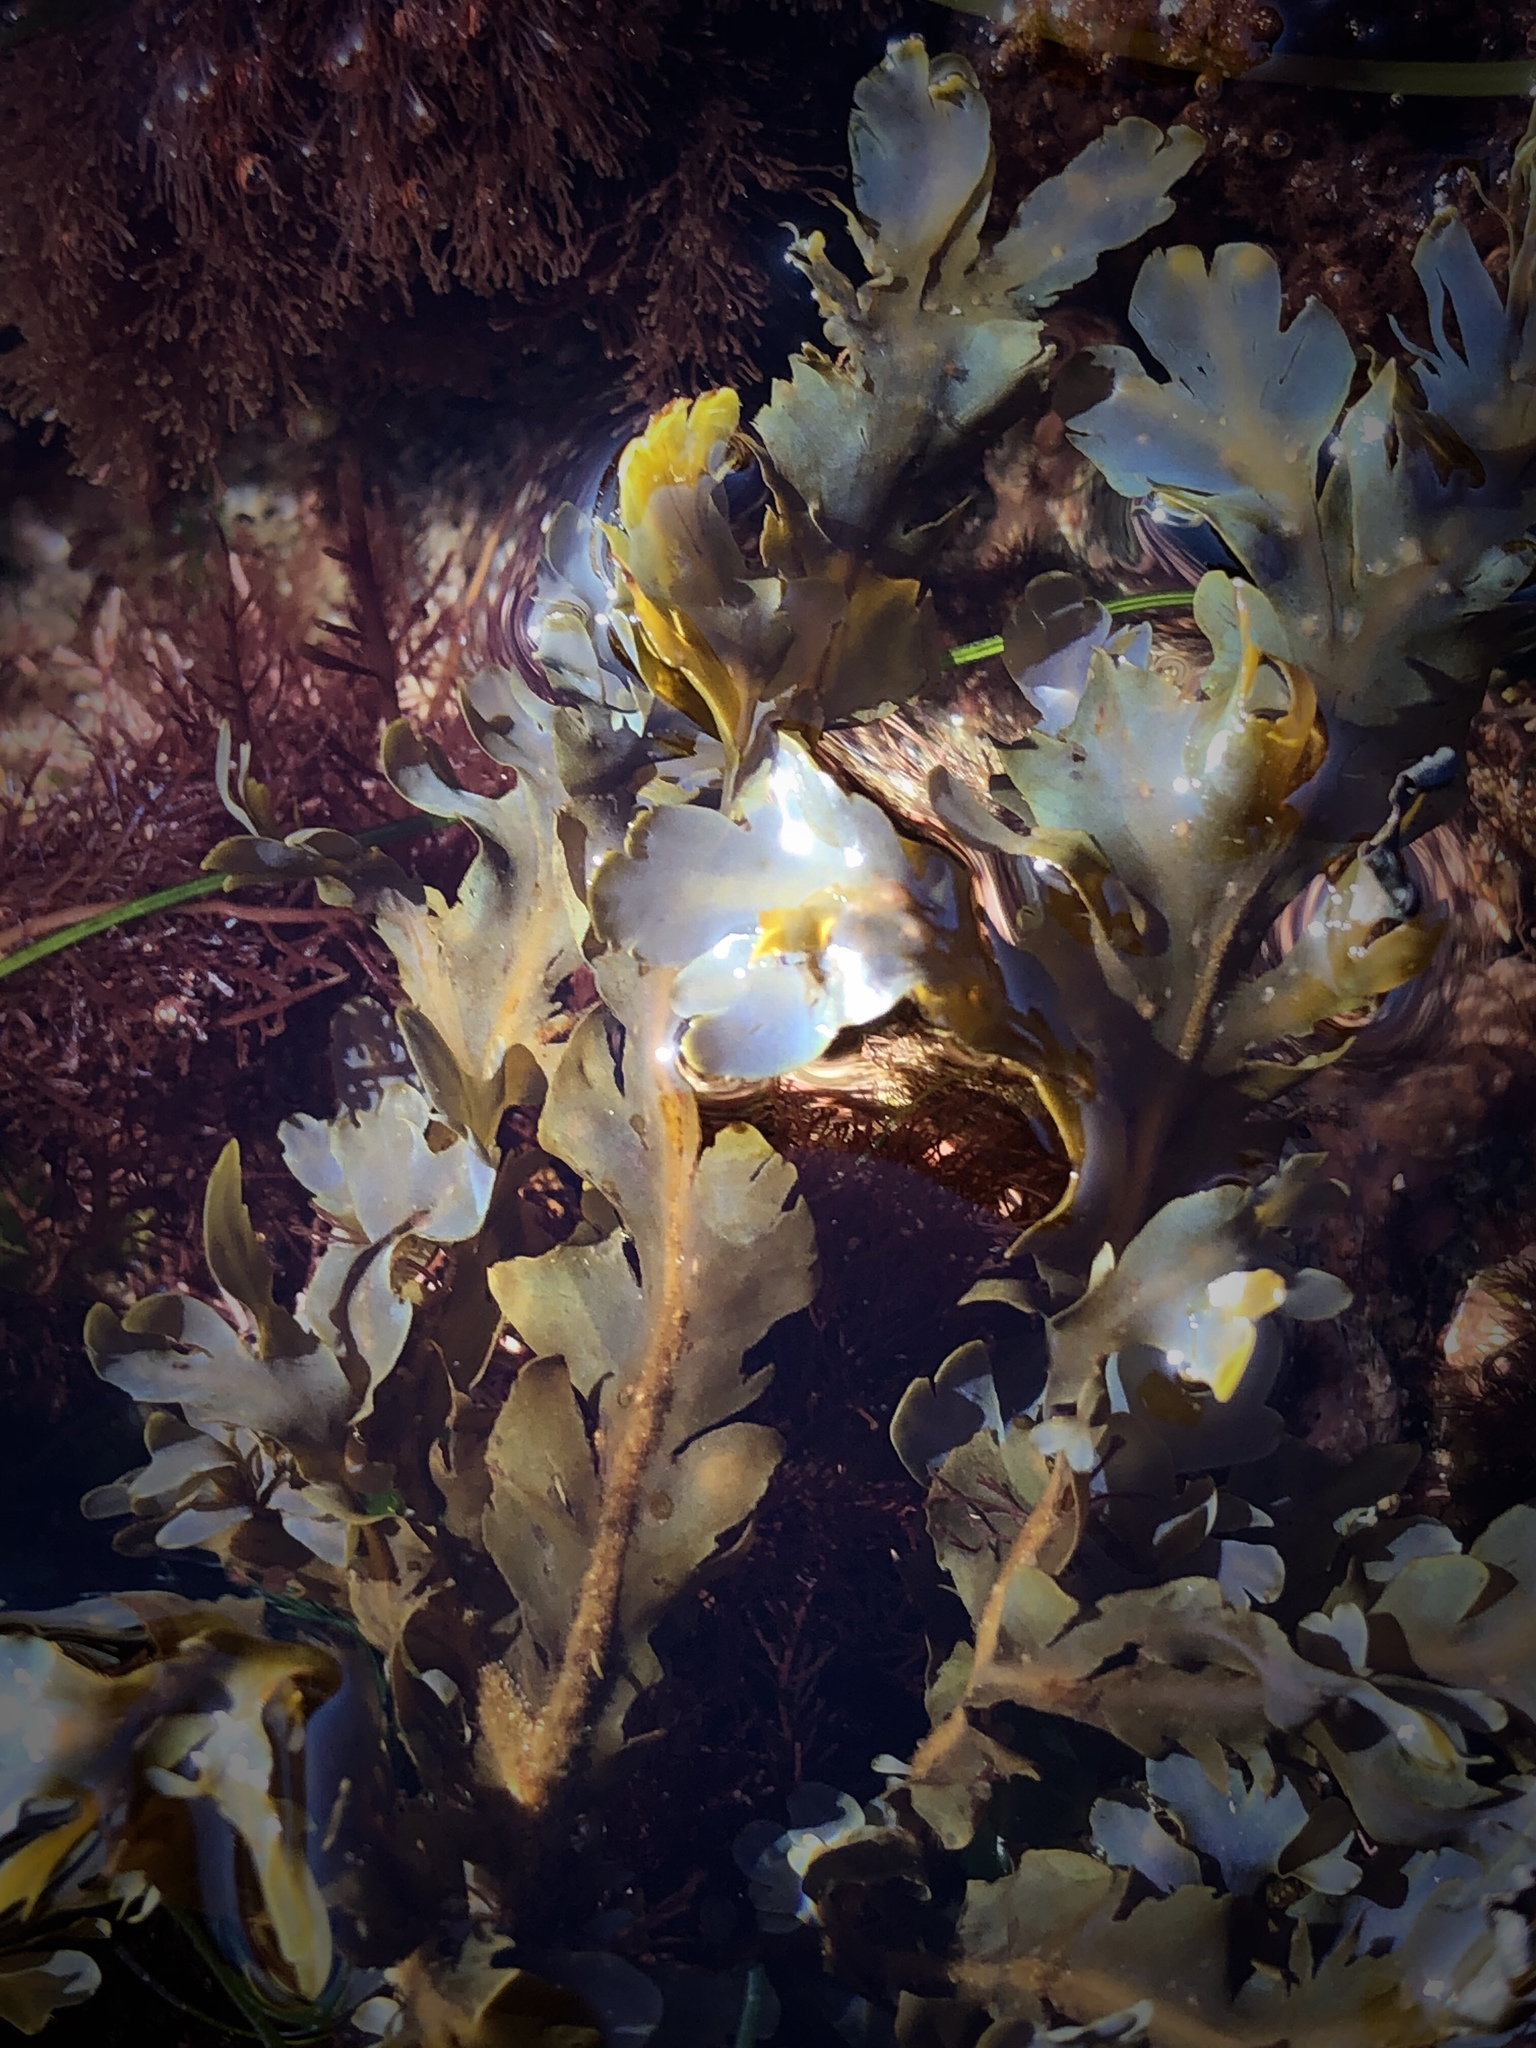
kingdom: Chromista
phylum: Ochrophyta
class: Phaeophyceae
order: Dictyotales
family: Dictyotaceae
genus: Dictyopteris
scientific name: Dictyopteris undulata
